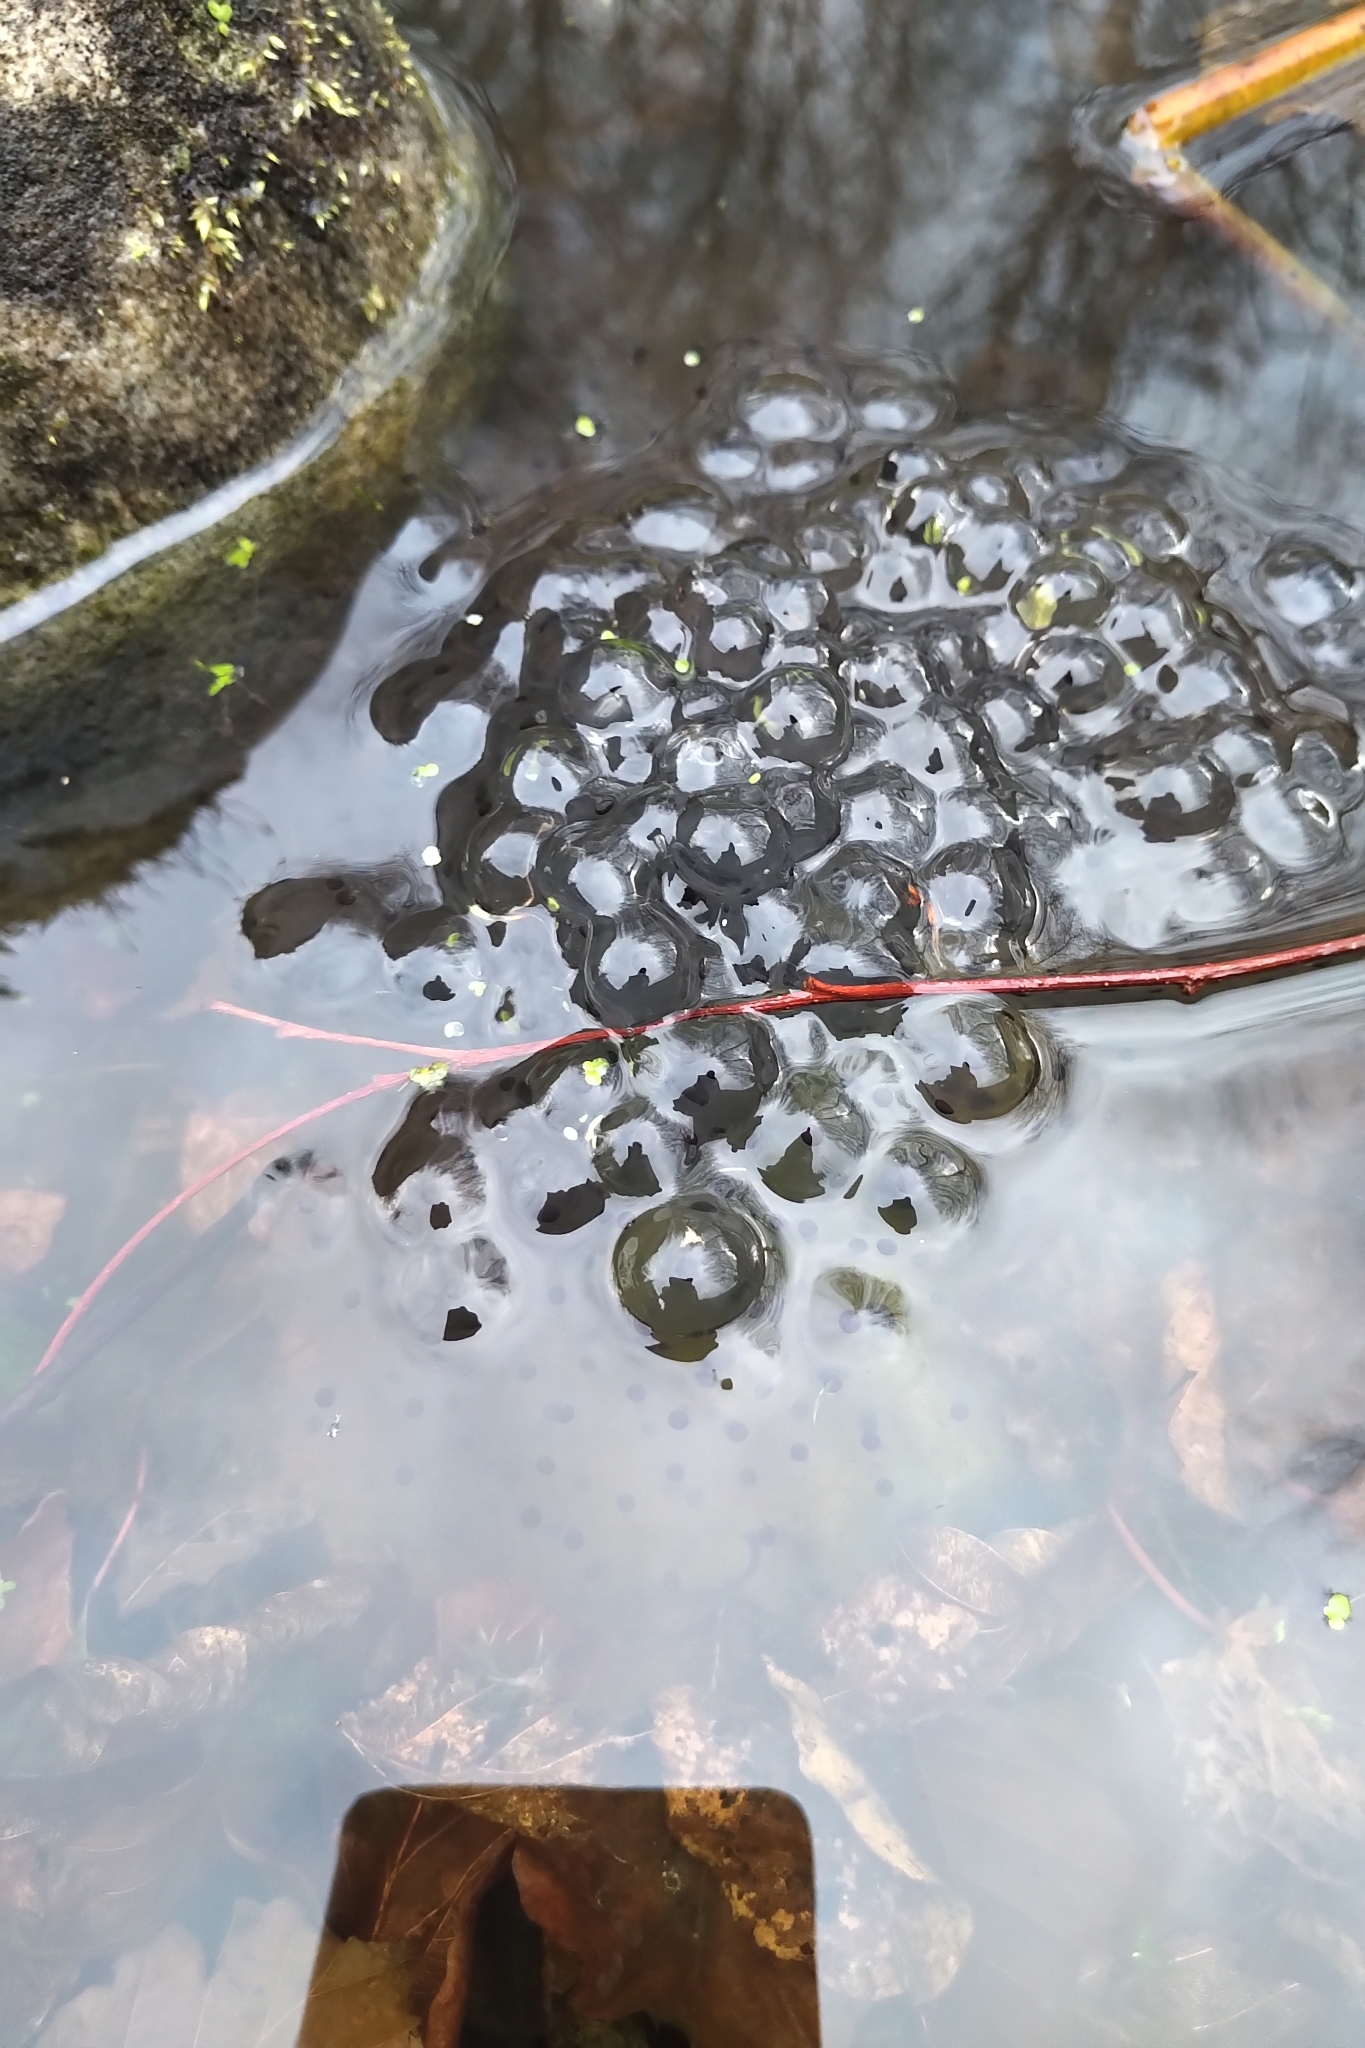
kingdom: Animalia
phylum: Chordata
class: Amphibia
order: Anura
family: Ranidae
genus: Rana
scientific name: Rana temporaria
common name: Common frog
